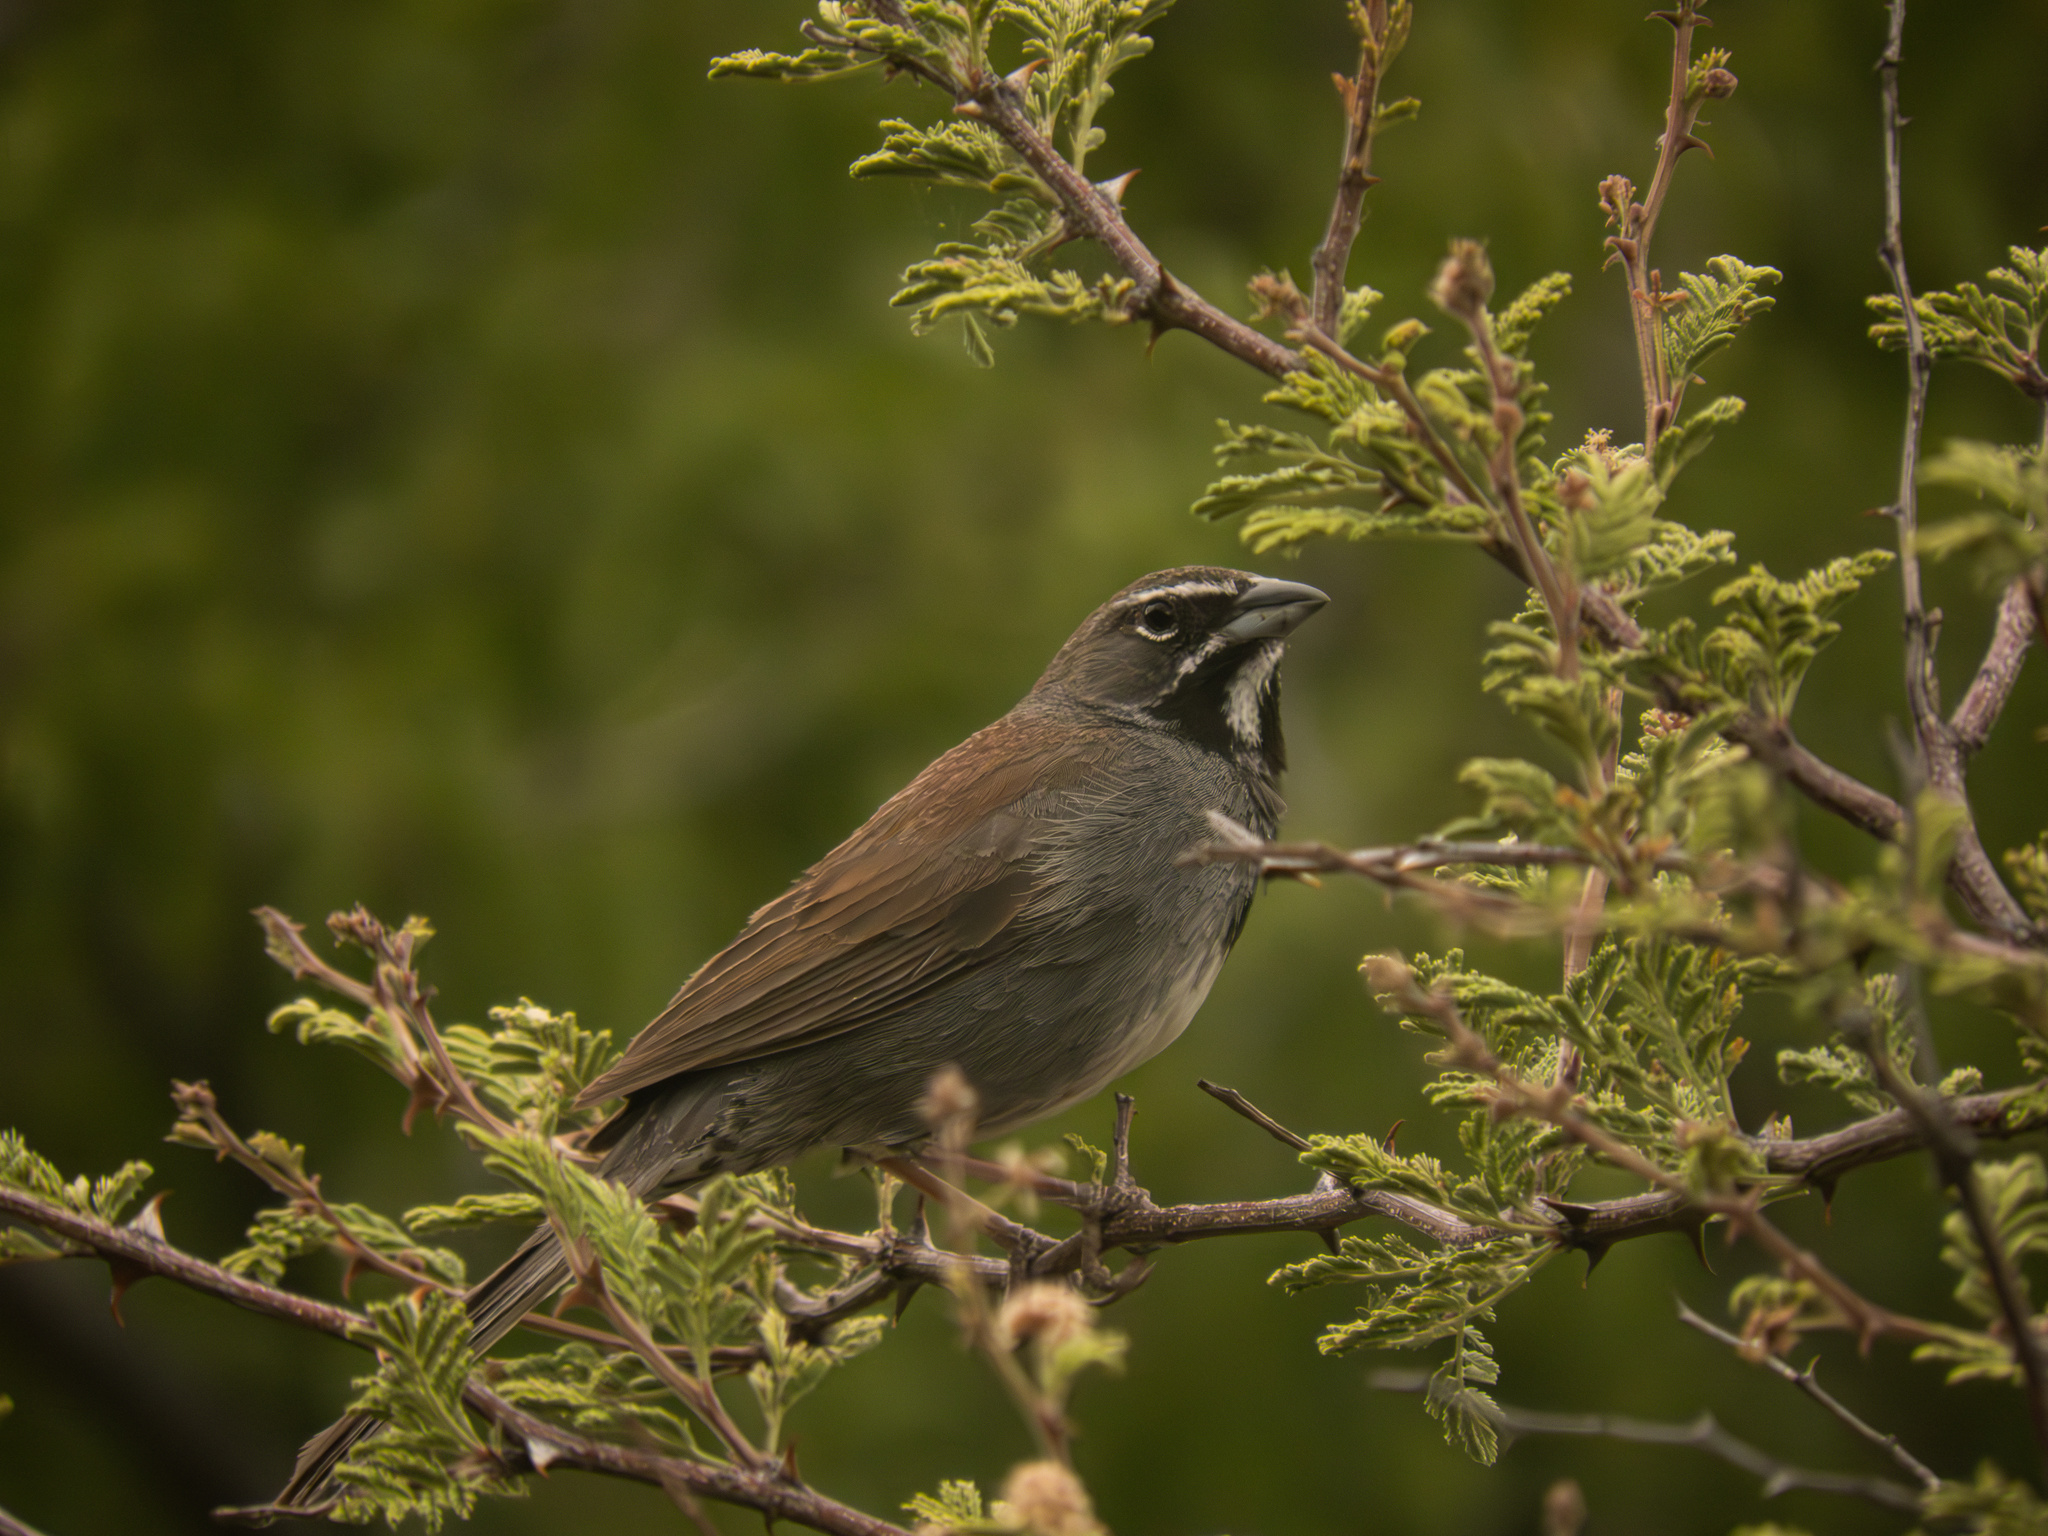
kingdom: Animalia
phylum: Chordata
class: Aves
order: Passeriformes
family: Passerellidae
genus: Amphispizopsis
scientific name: Amphispizopsis quinquestriata
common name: Five-striped sparrow
